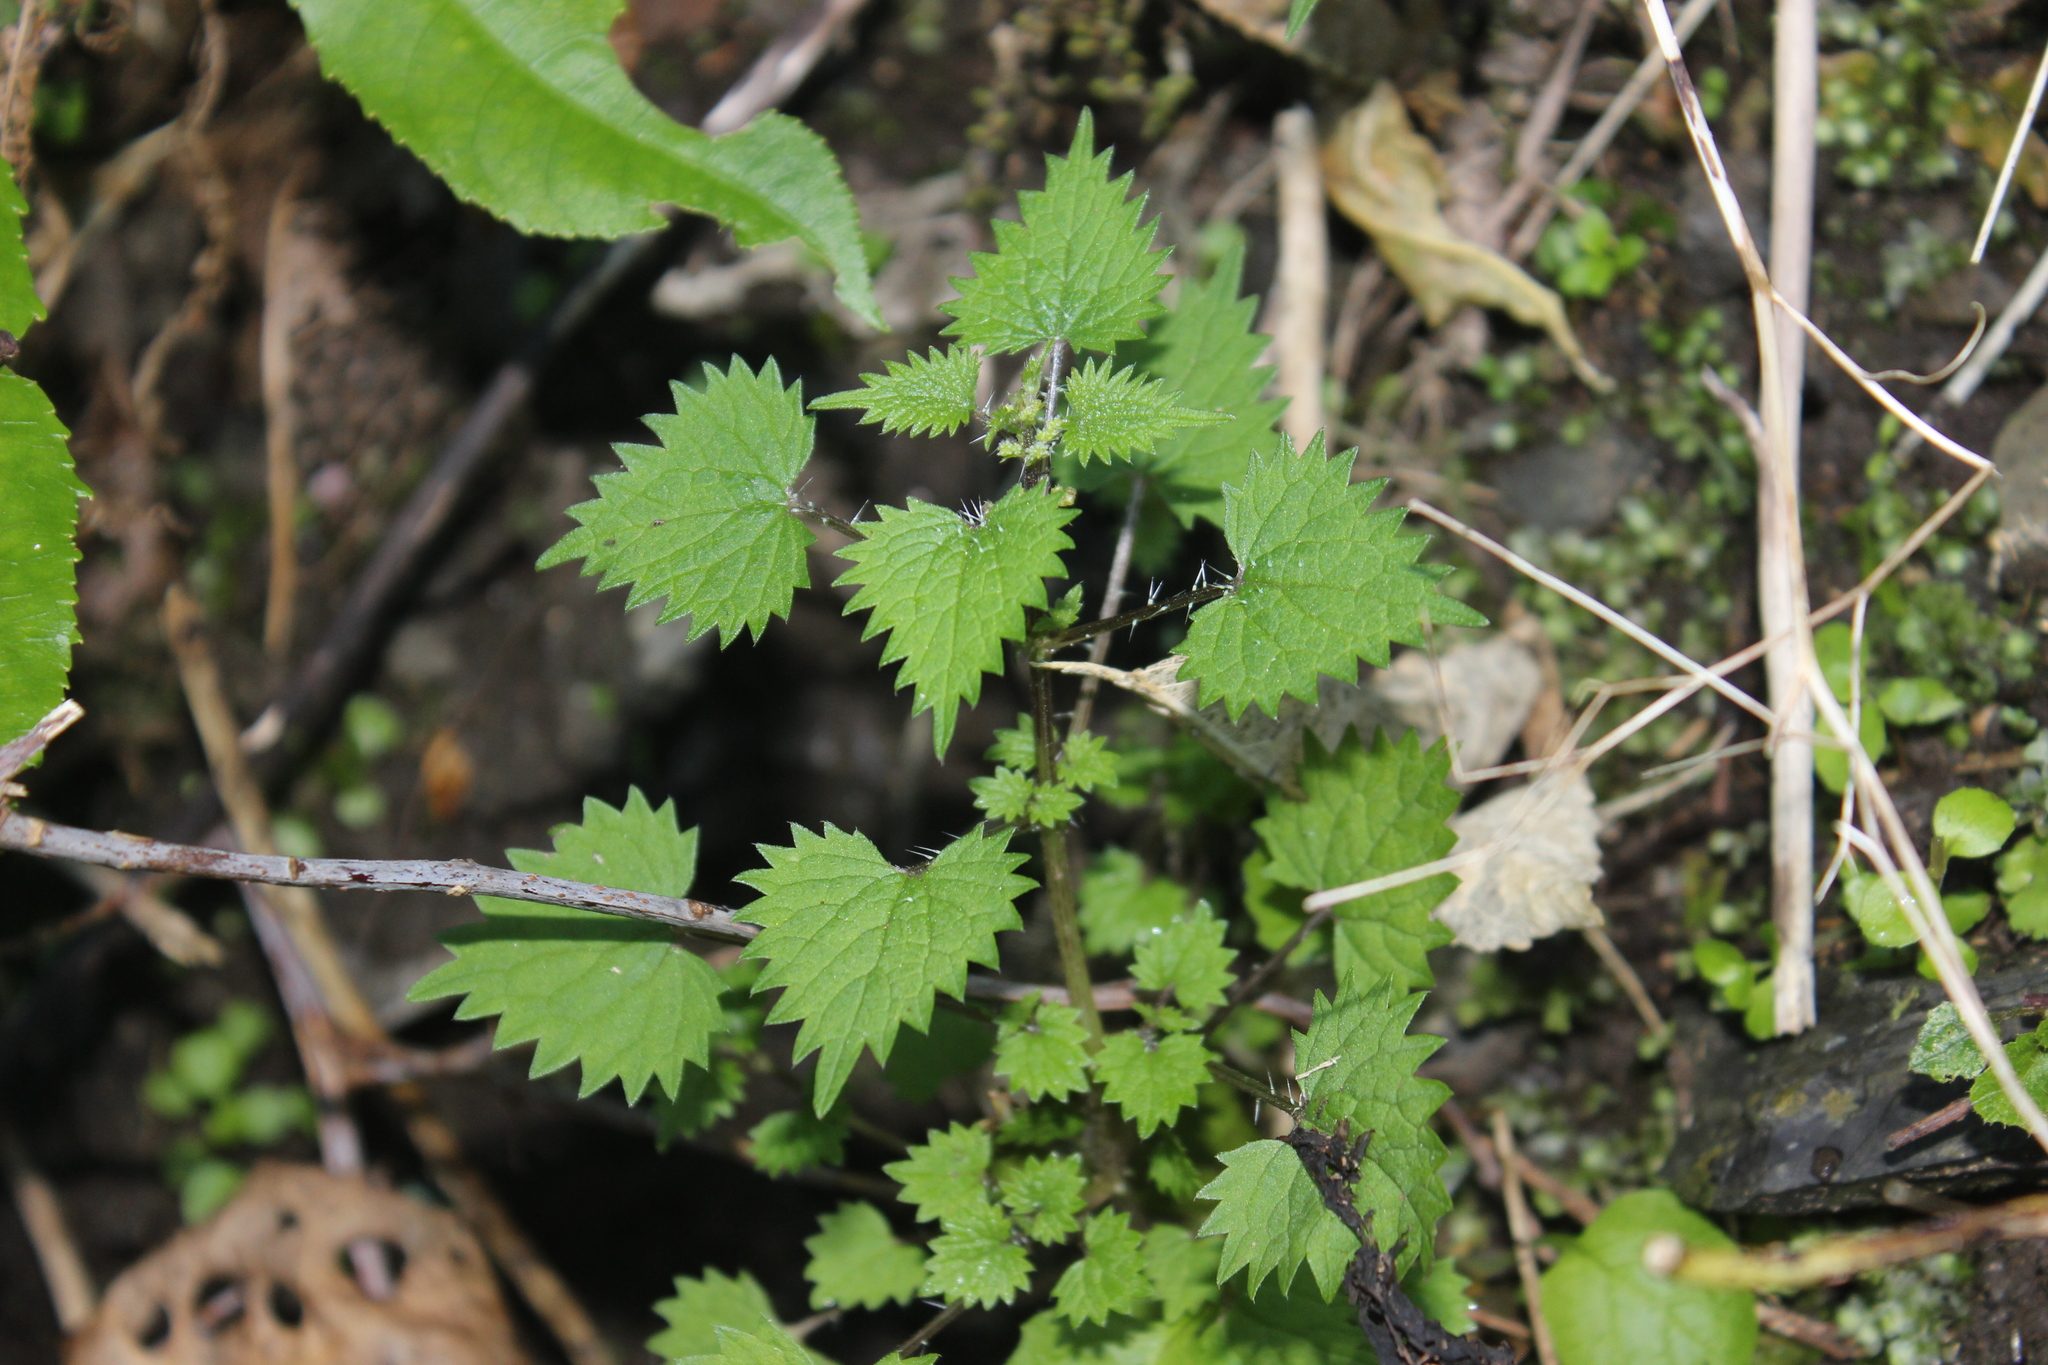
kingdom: Plantae
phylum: Tracheophyta
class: Magnoliopsida
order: Rosales
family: Urticaceae
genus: Urtica
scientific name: Urtica sykesii
